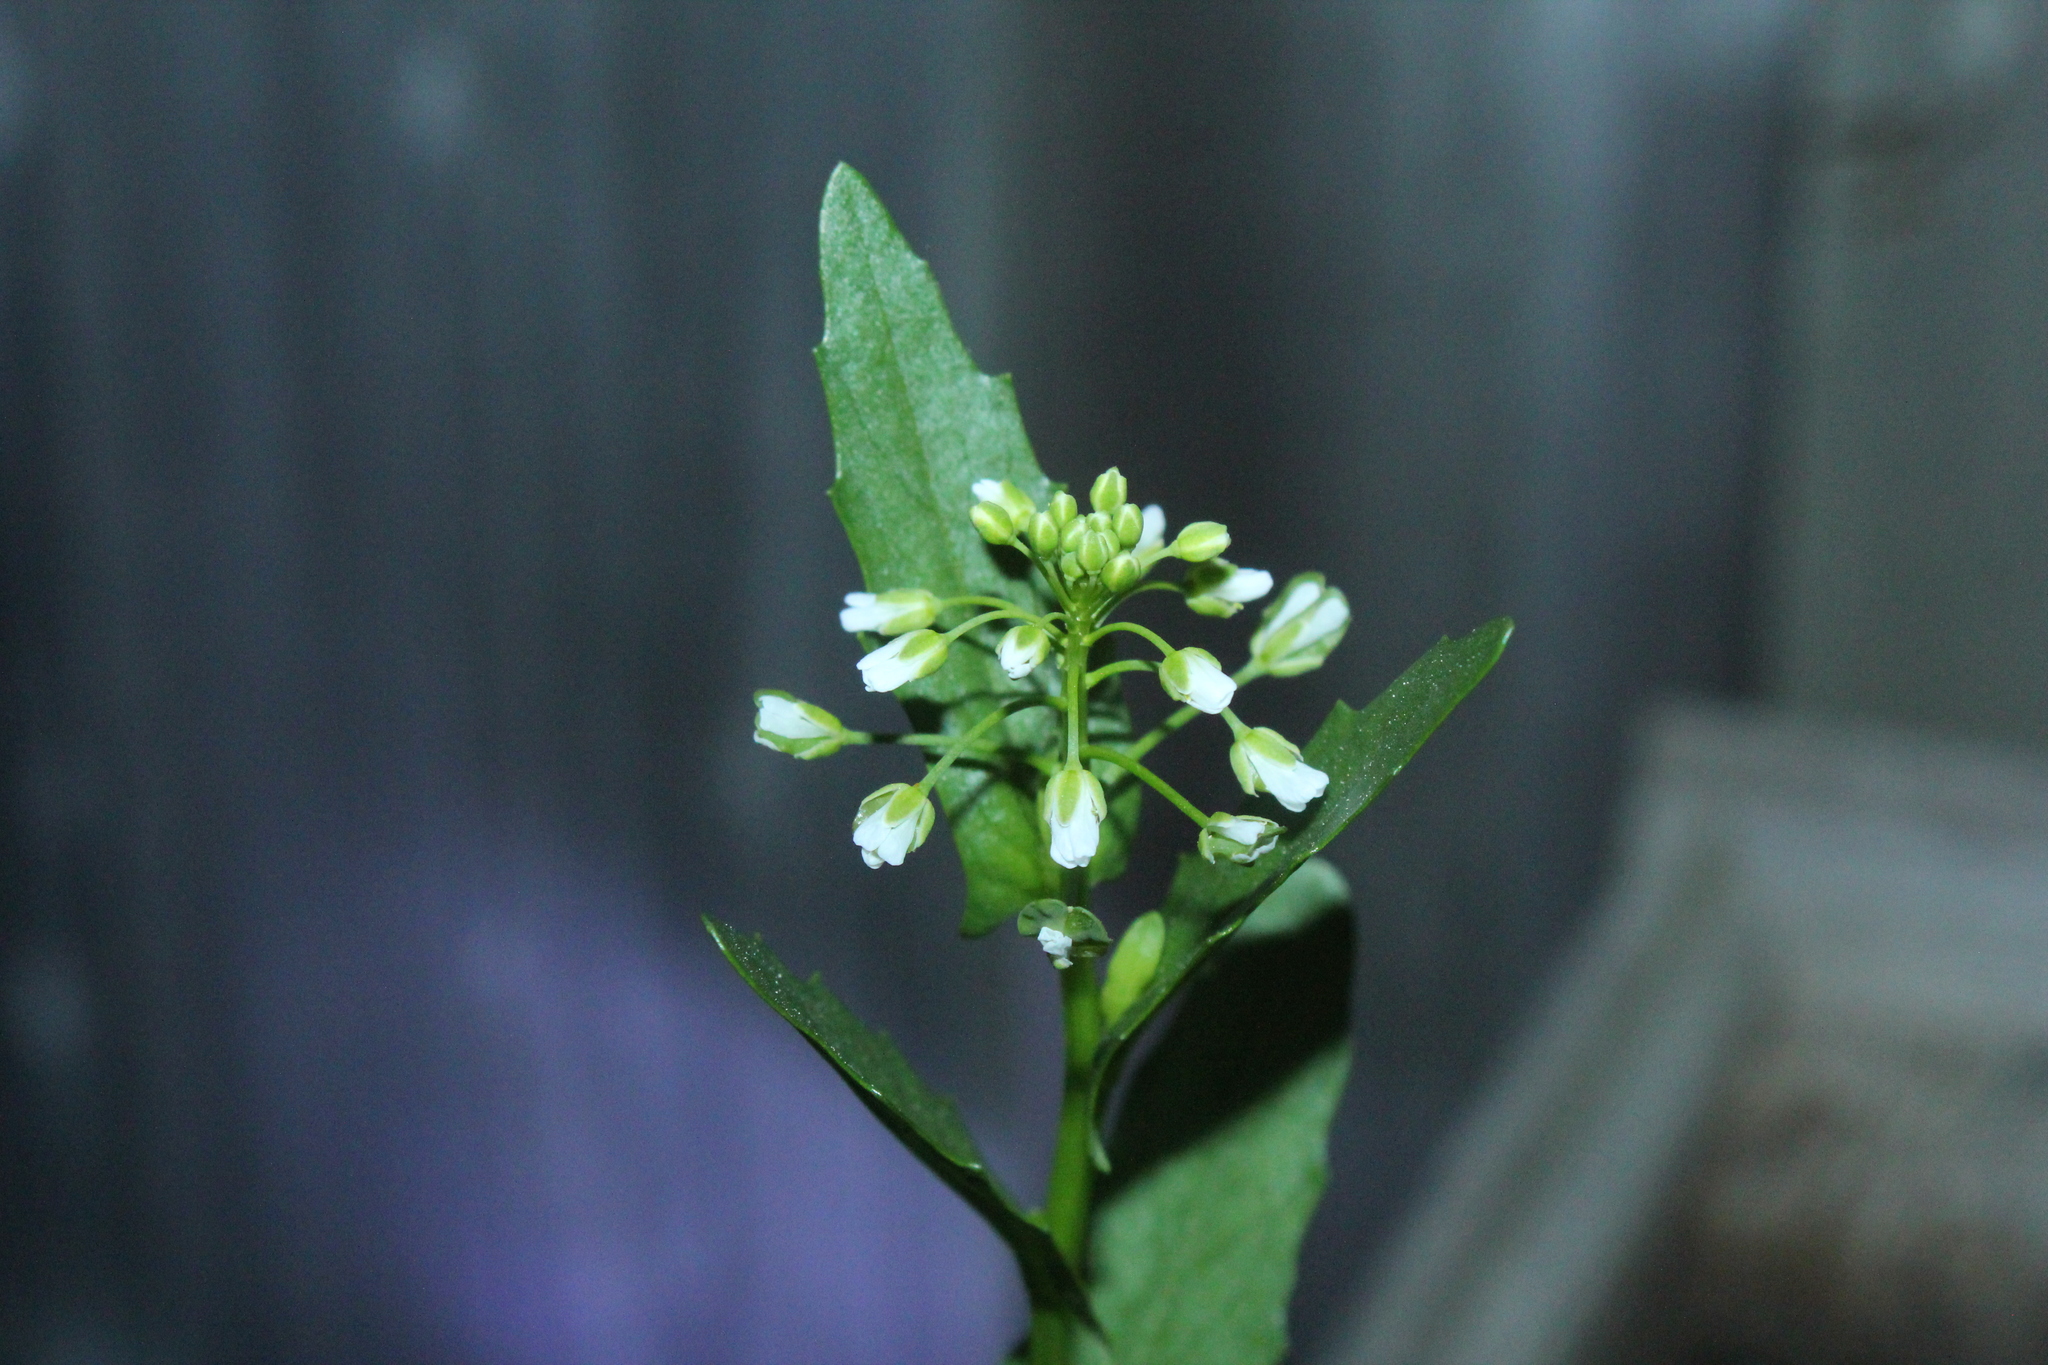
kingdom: Plantae
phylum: Tracheophyta
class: Magnoliopsida
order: Brassicales
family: Brassicaceae
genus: Thlaspi
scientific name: Thlaspi arvense
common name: Field pennycress
